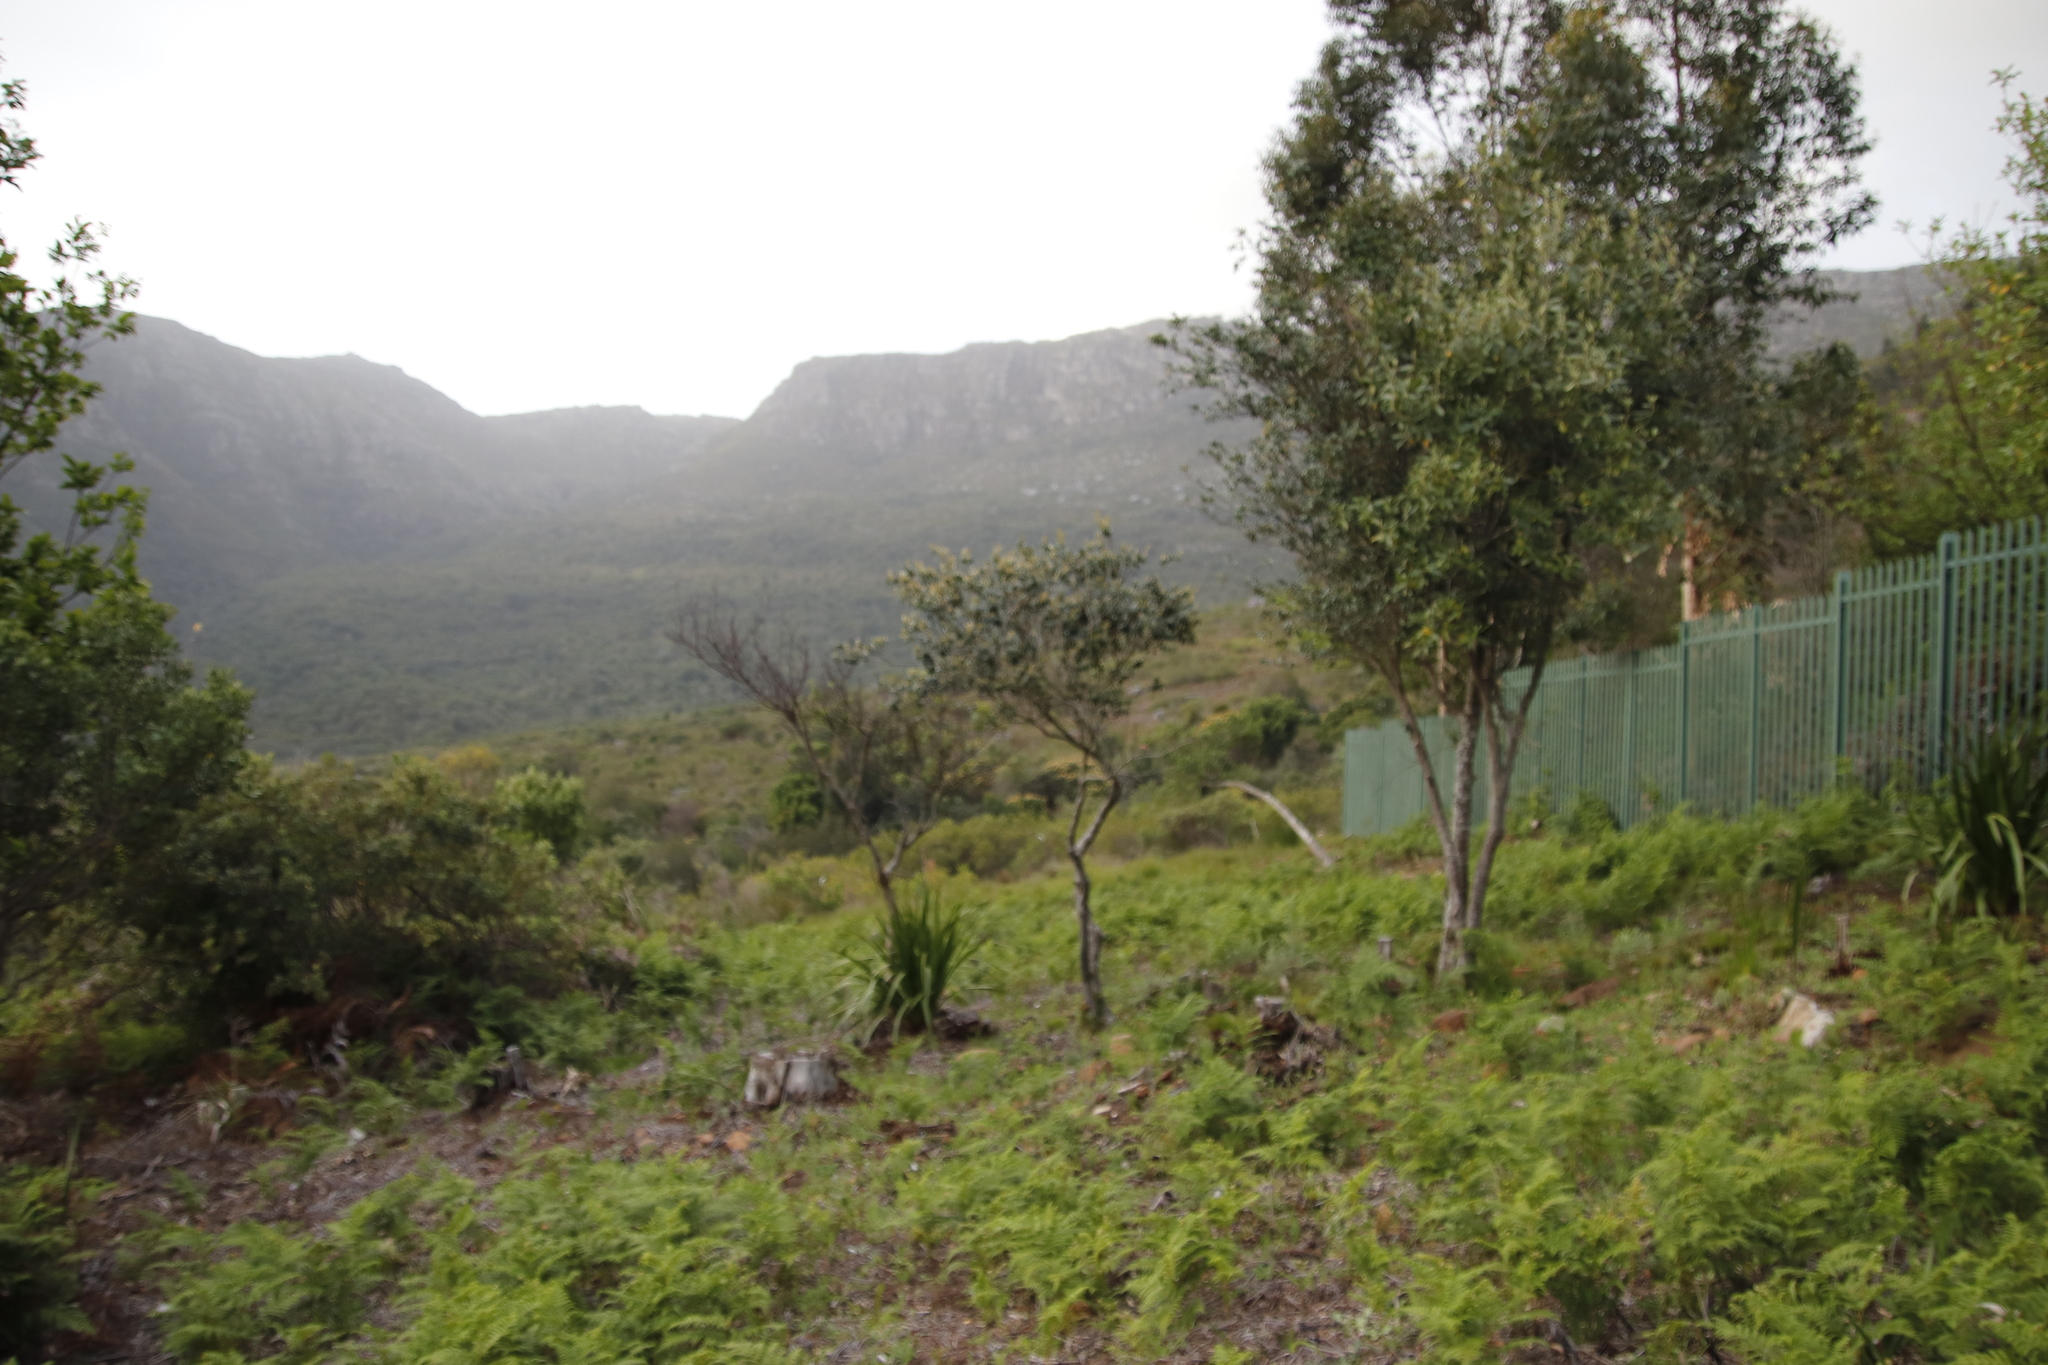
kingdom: Plantae
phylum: Tracheophyta
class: Magnoliopsida
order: Malpighiales
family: Achariaceae
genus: Kiggelaria
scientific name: Kiggelaria africana
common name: Wild peach
